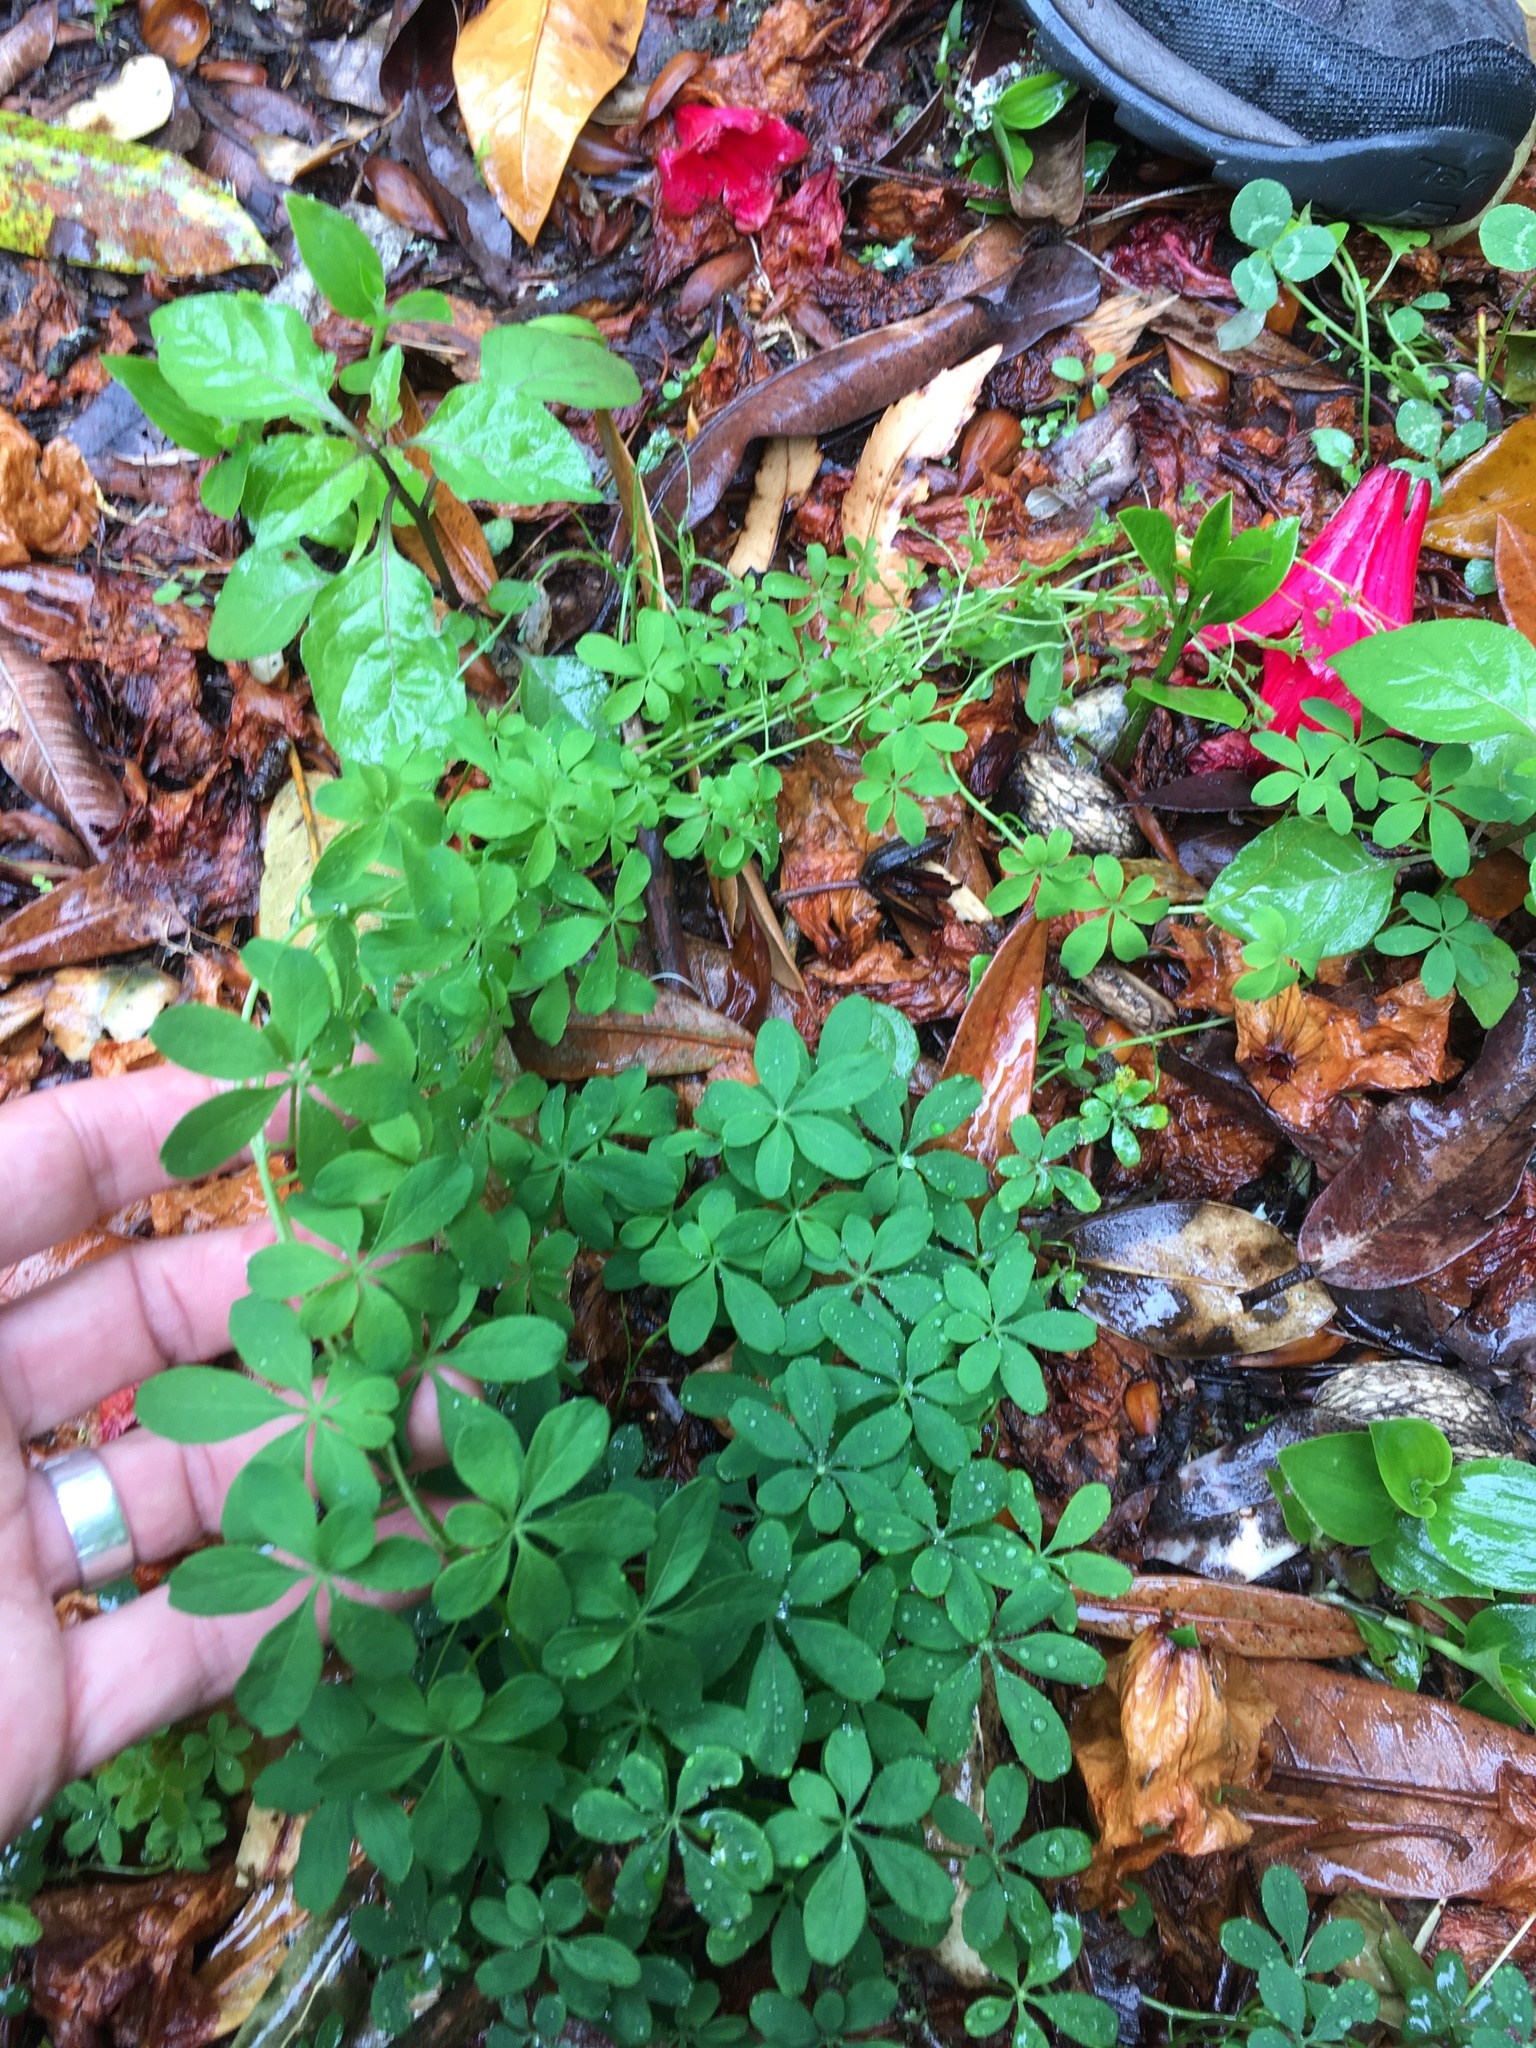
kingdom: Plantae
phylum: Tracheophyta
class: Magnoliopsida
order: Brassicales
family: Tropaeolaceae
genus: Tropaeolum
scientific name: Tropaeolum speciosum
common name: Flame nasturtium
